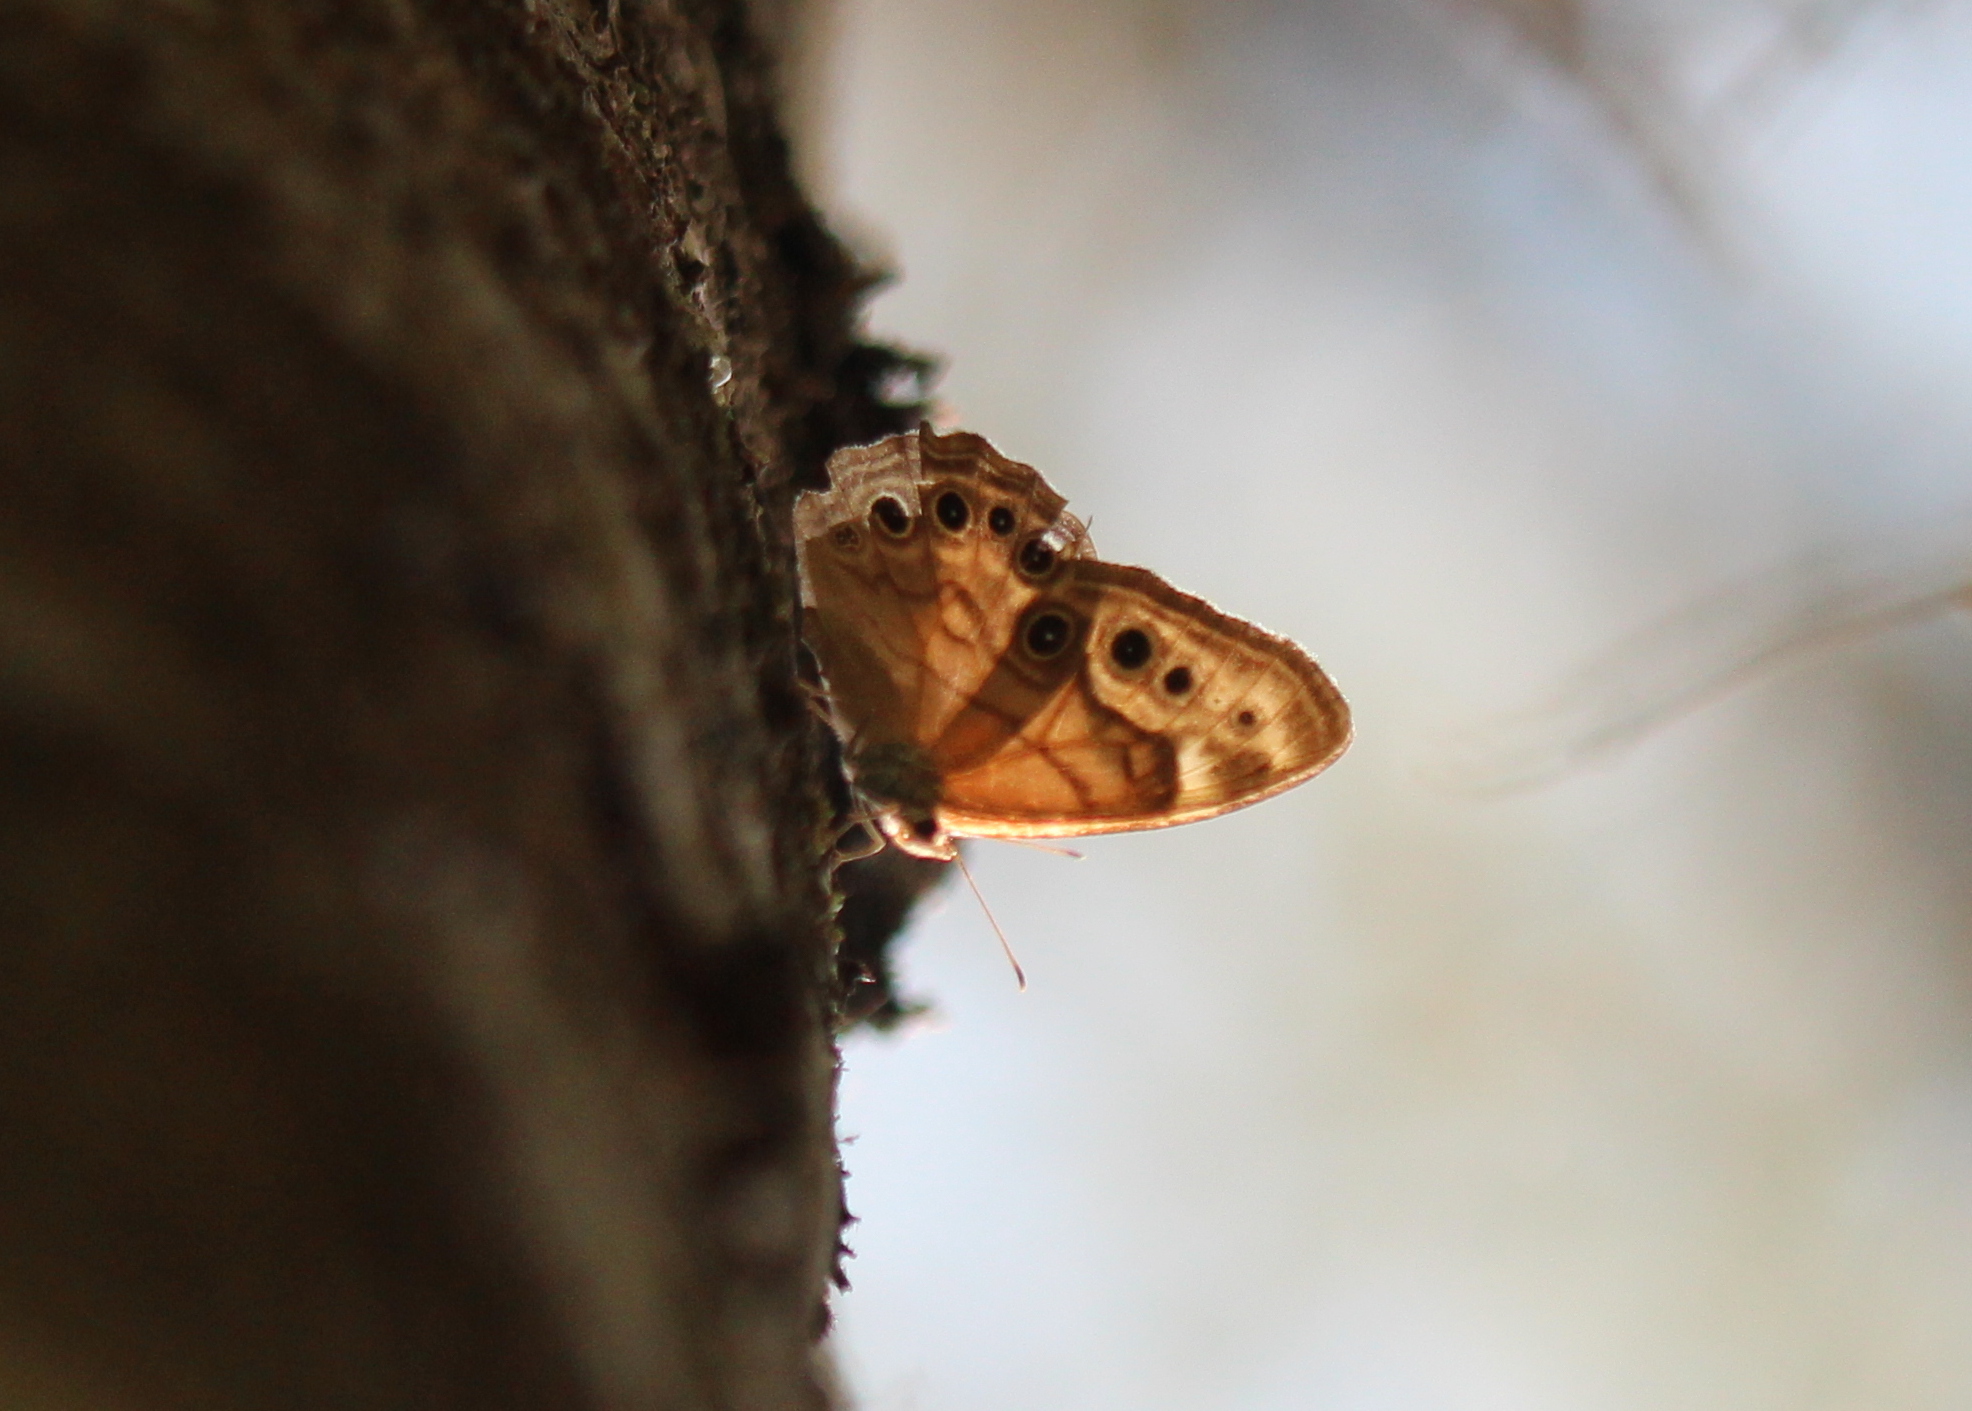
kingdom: Animalia
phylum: Arthropoda
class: Insecta
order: Lepidoptera
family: Nymphalidae
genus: Lethe
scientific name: Lethe anthedon
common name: Northern pearly-eye
